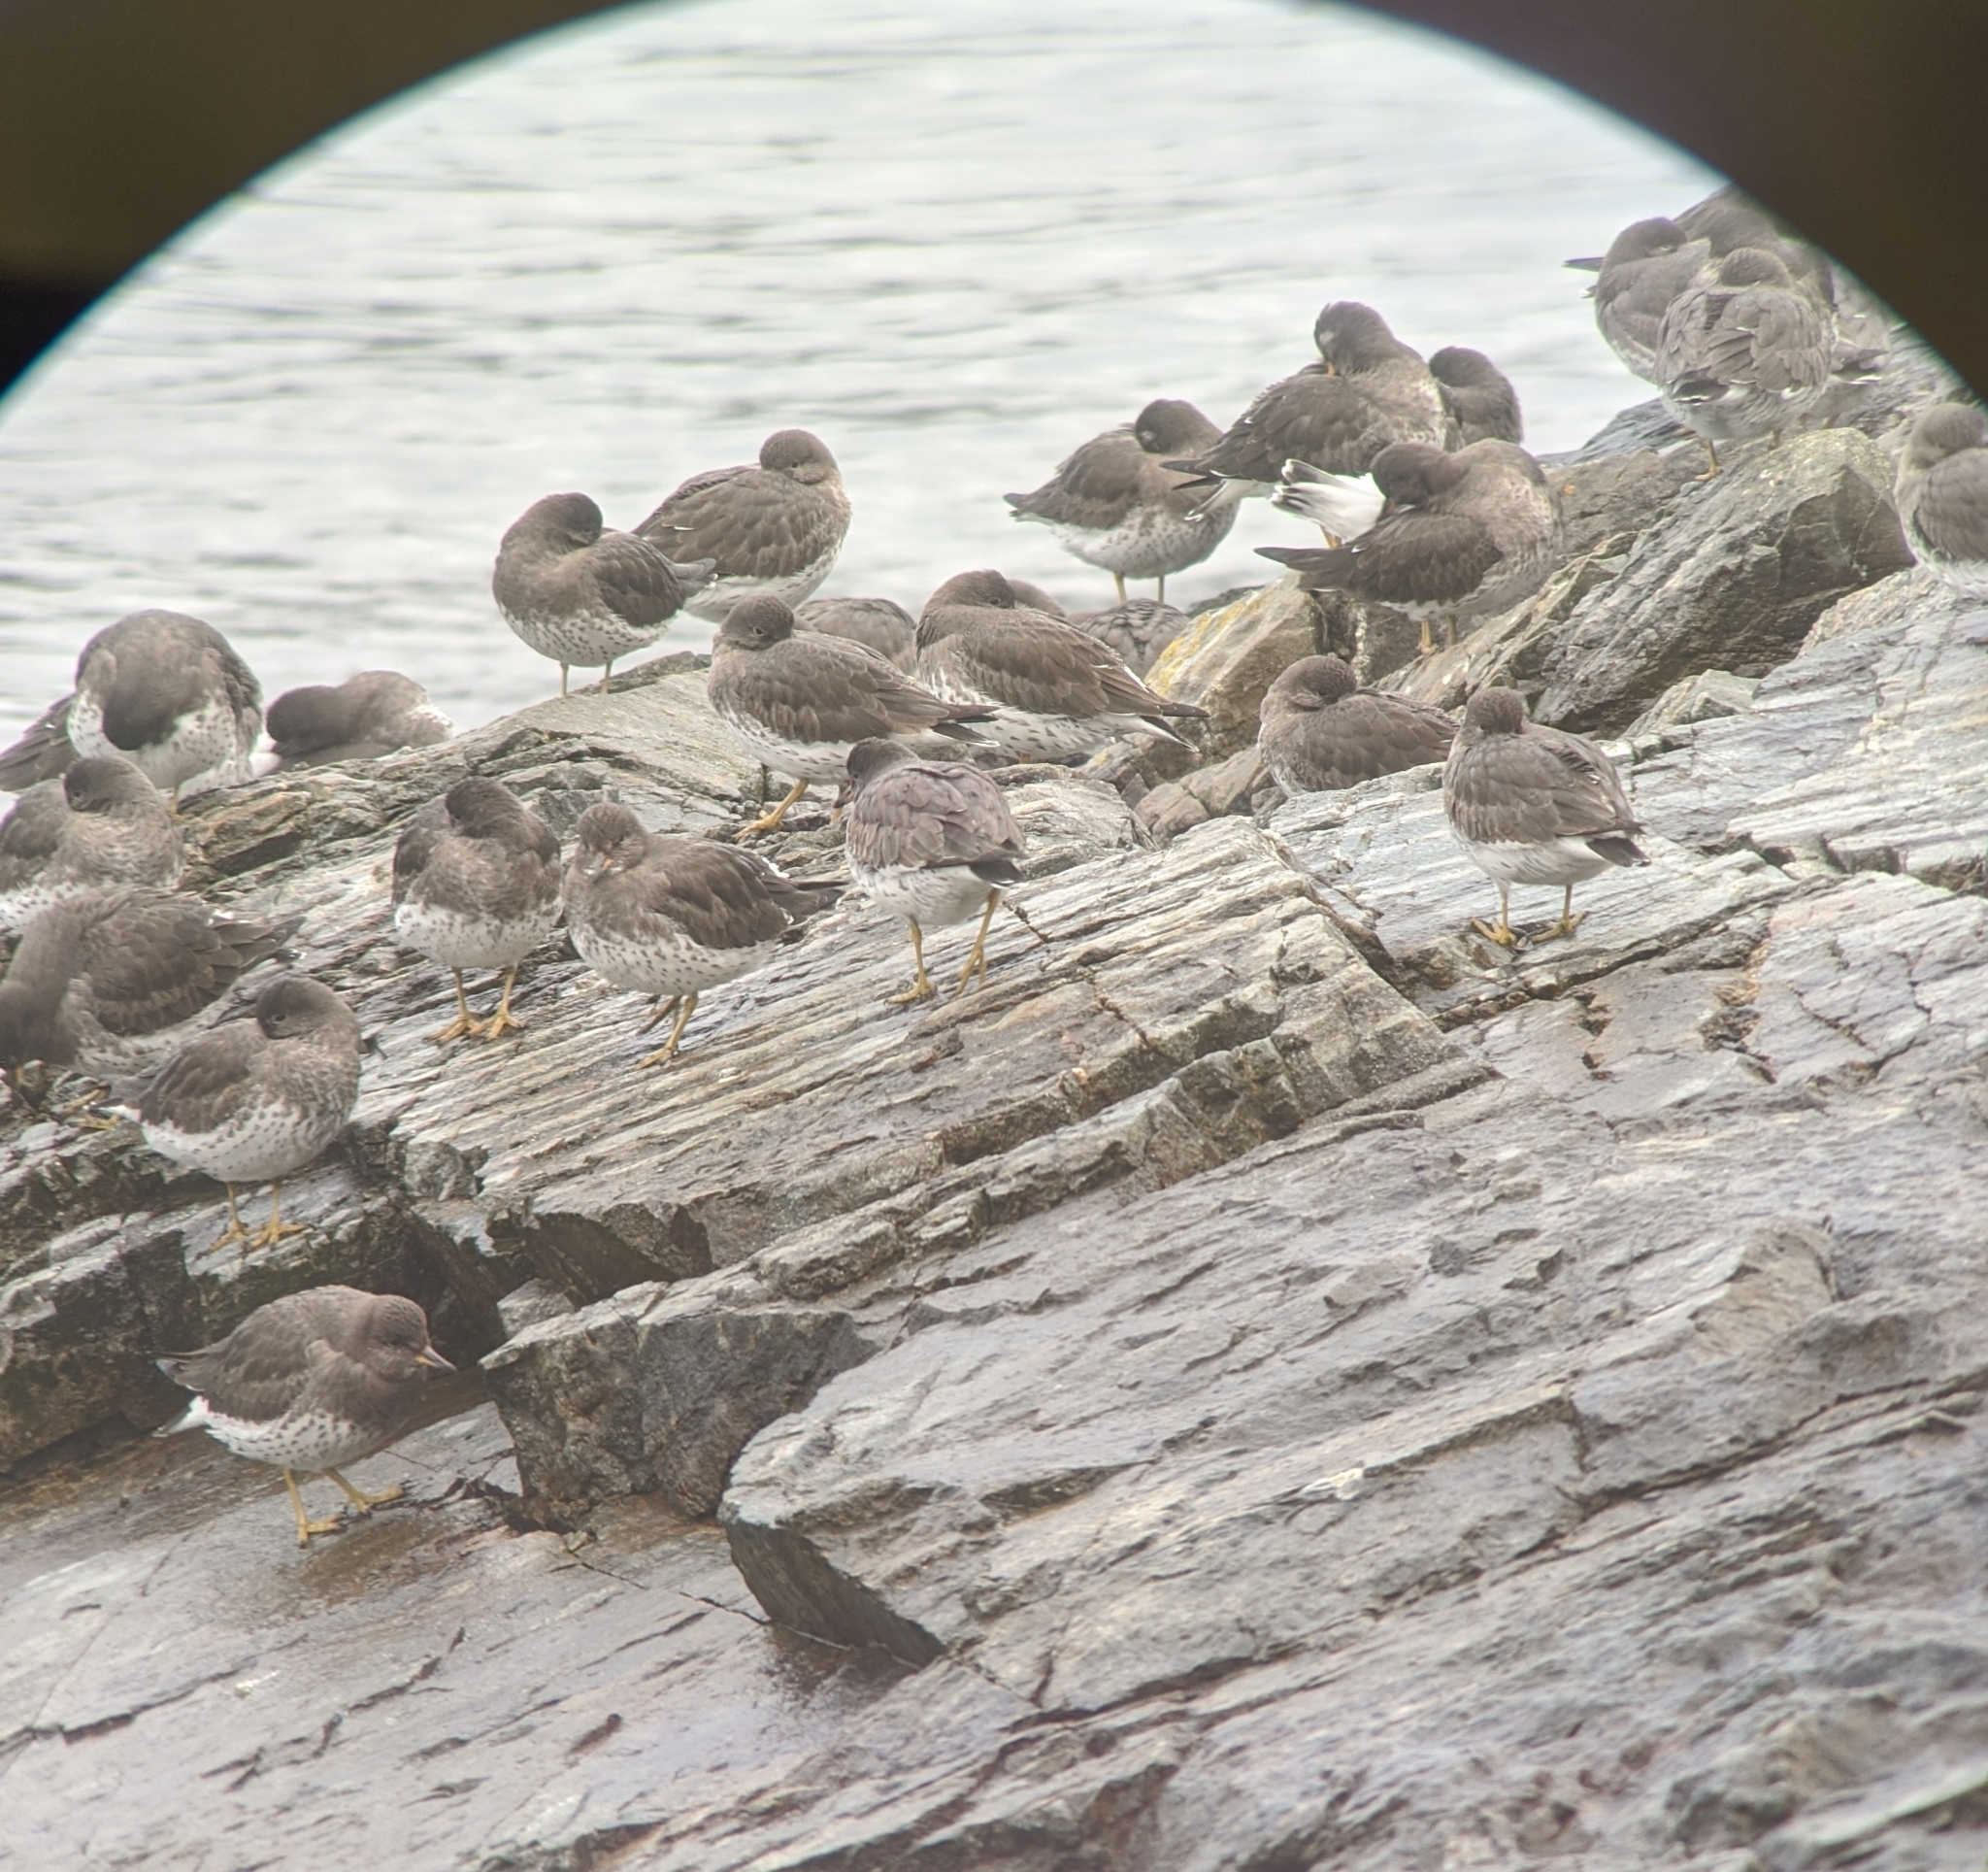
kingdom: Animalia
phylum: Chordata
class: Aves
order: Charadriiformes
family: Scolopacidae
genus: Calidris
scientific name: Calidris virgata
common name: Surfbird
